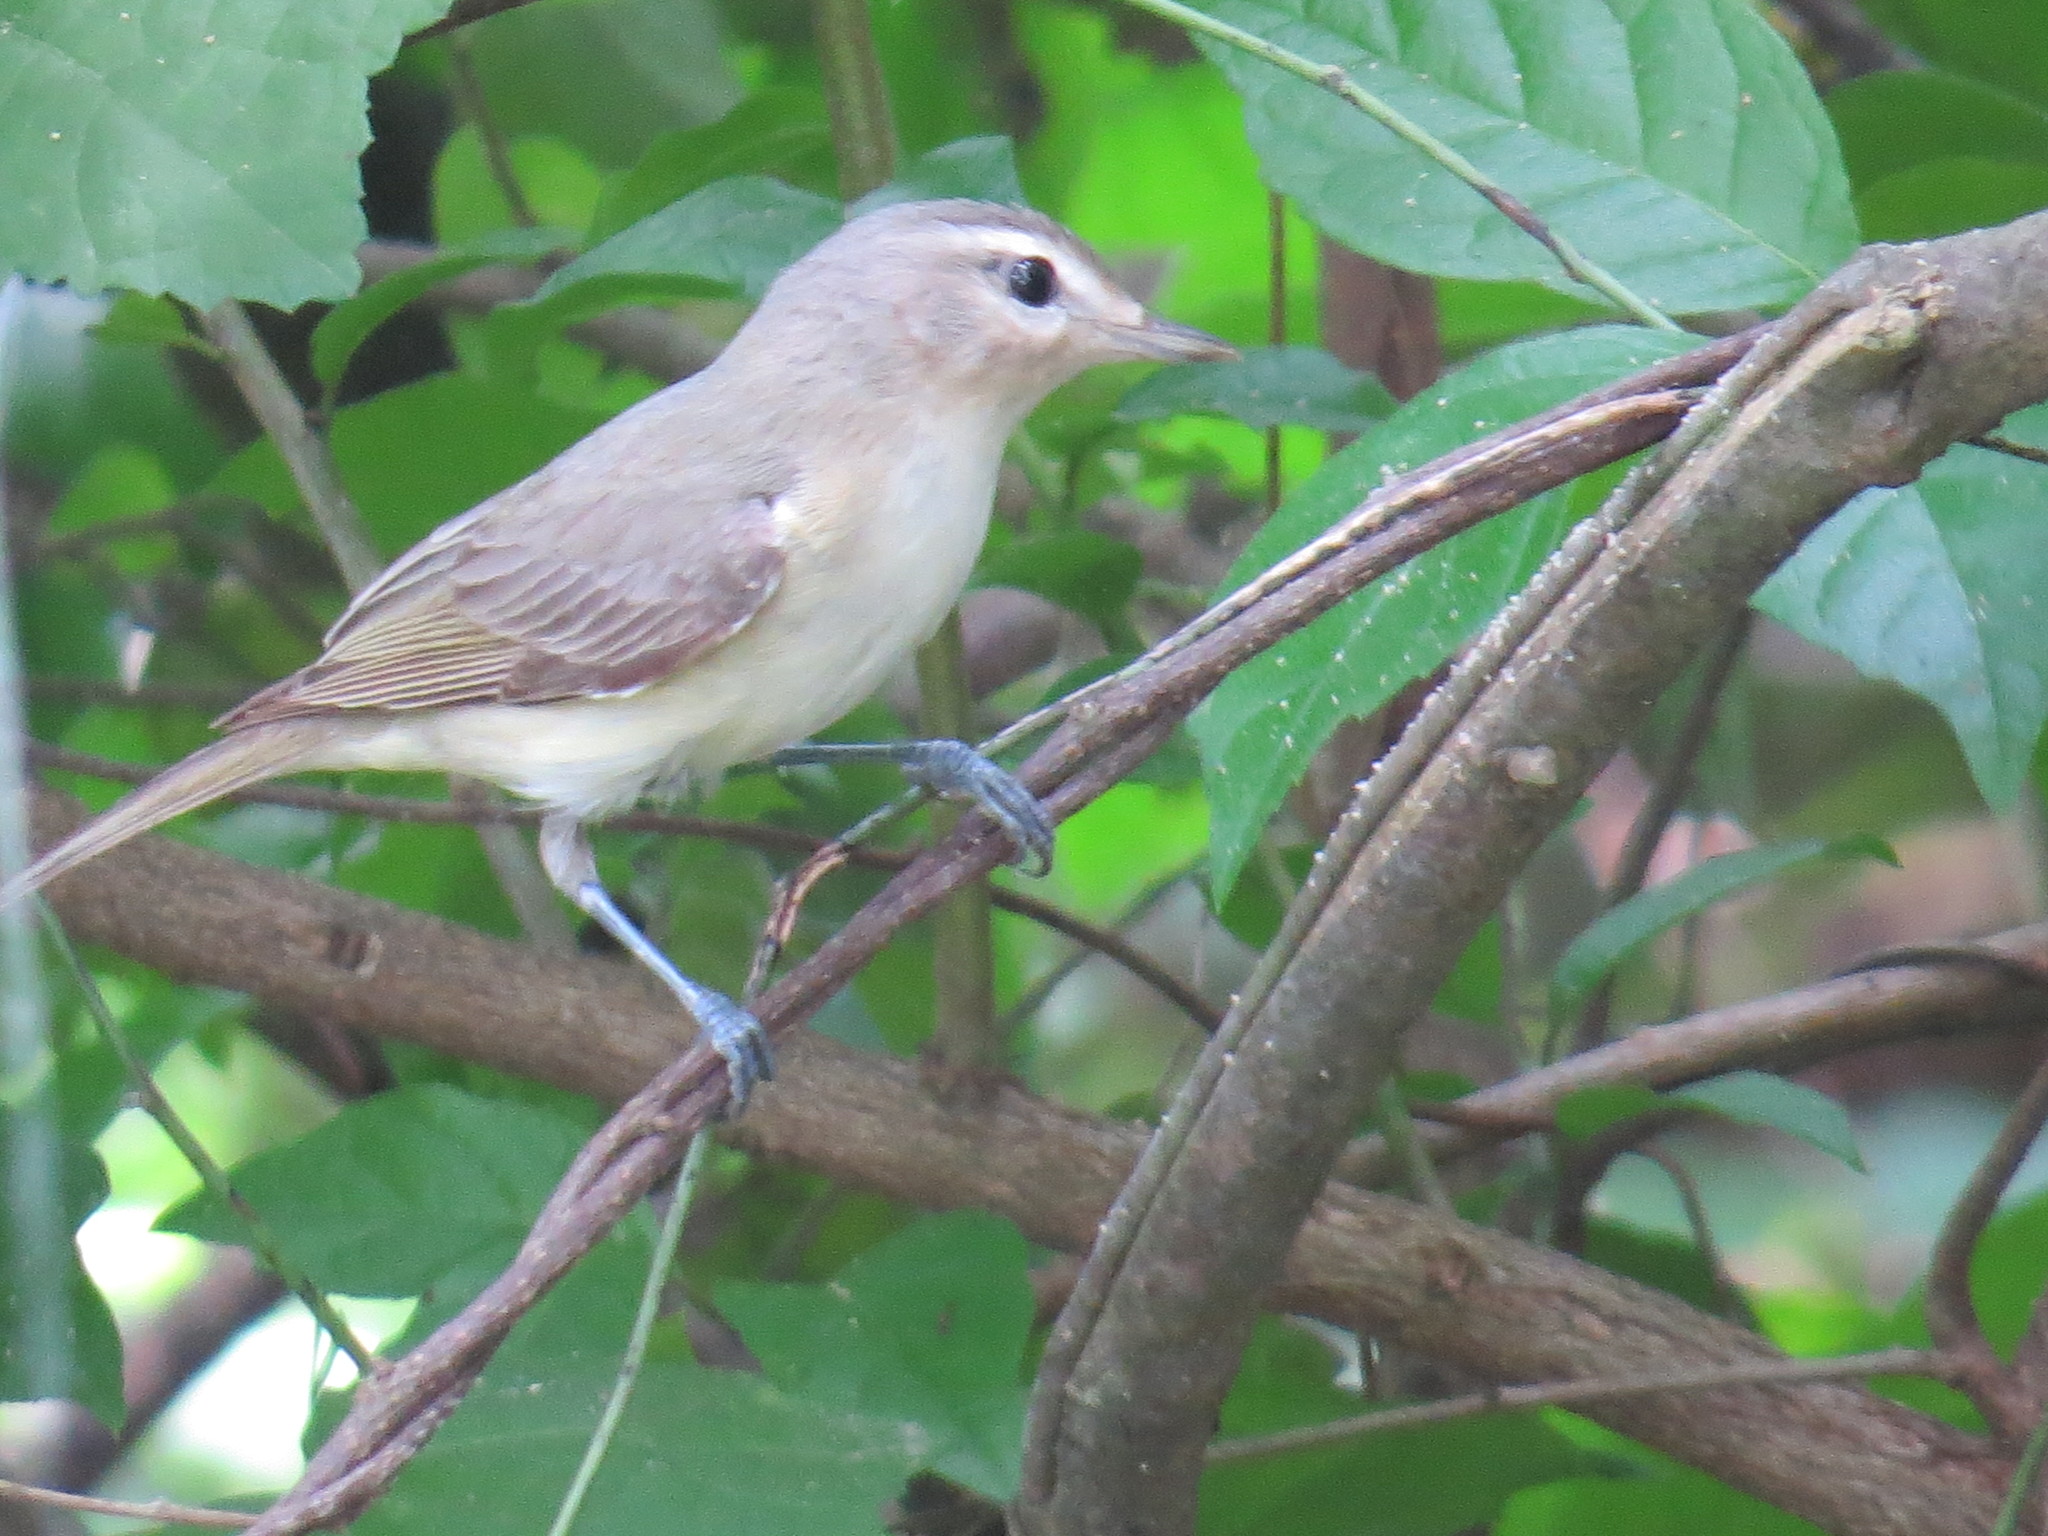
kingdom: Animalia
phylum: Chordata
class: Aves
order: Passeriformes
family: Vireonidae
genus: Vireo
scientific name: Vireo gilvus
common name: Warbling vireo
